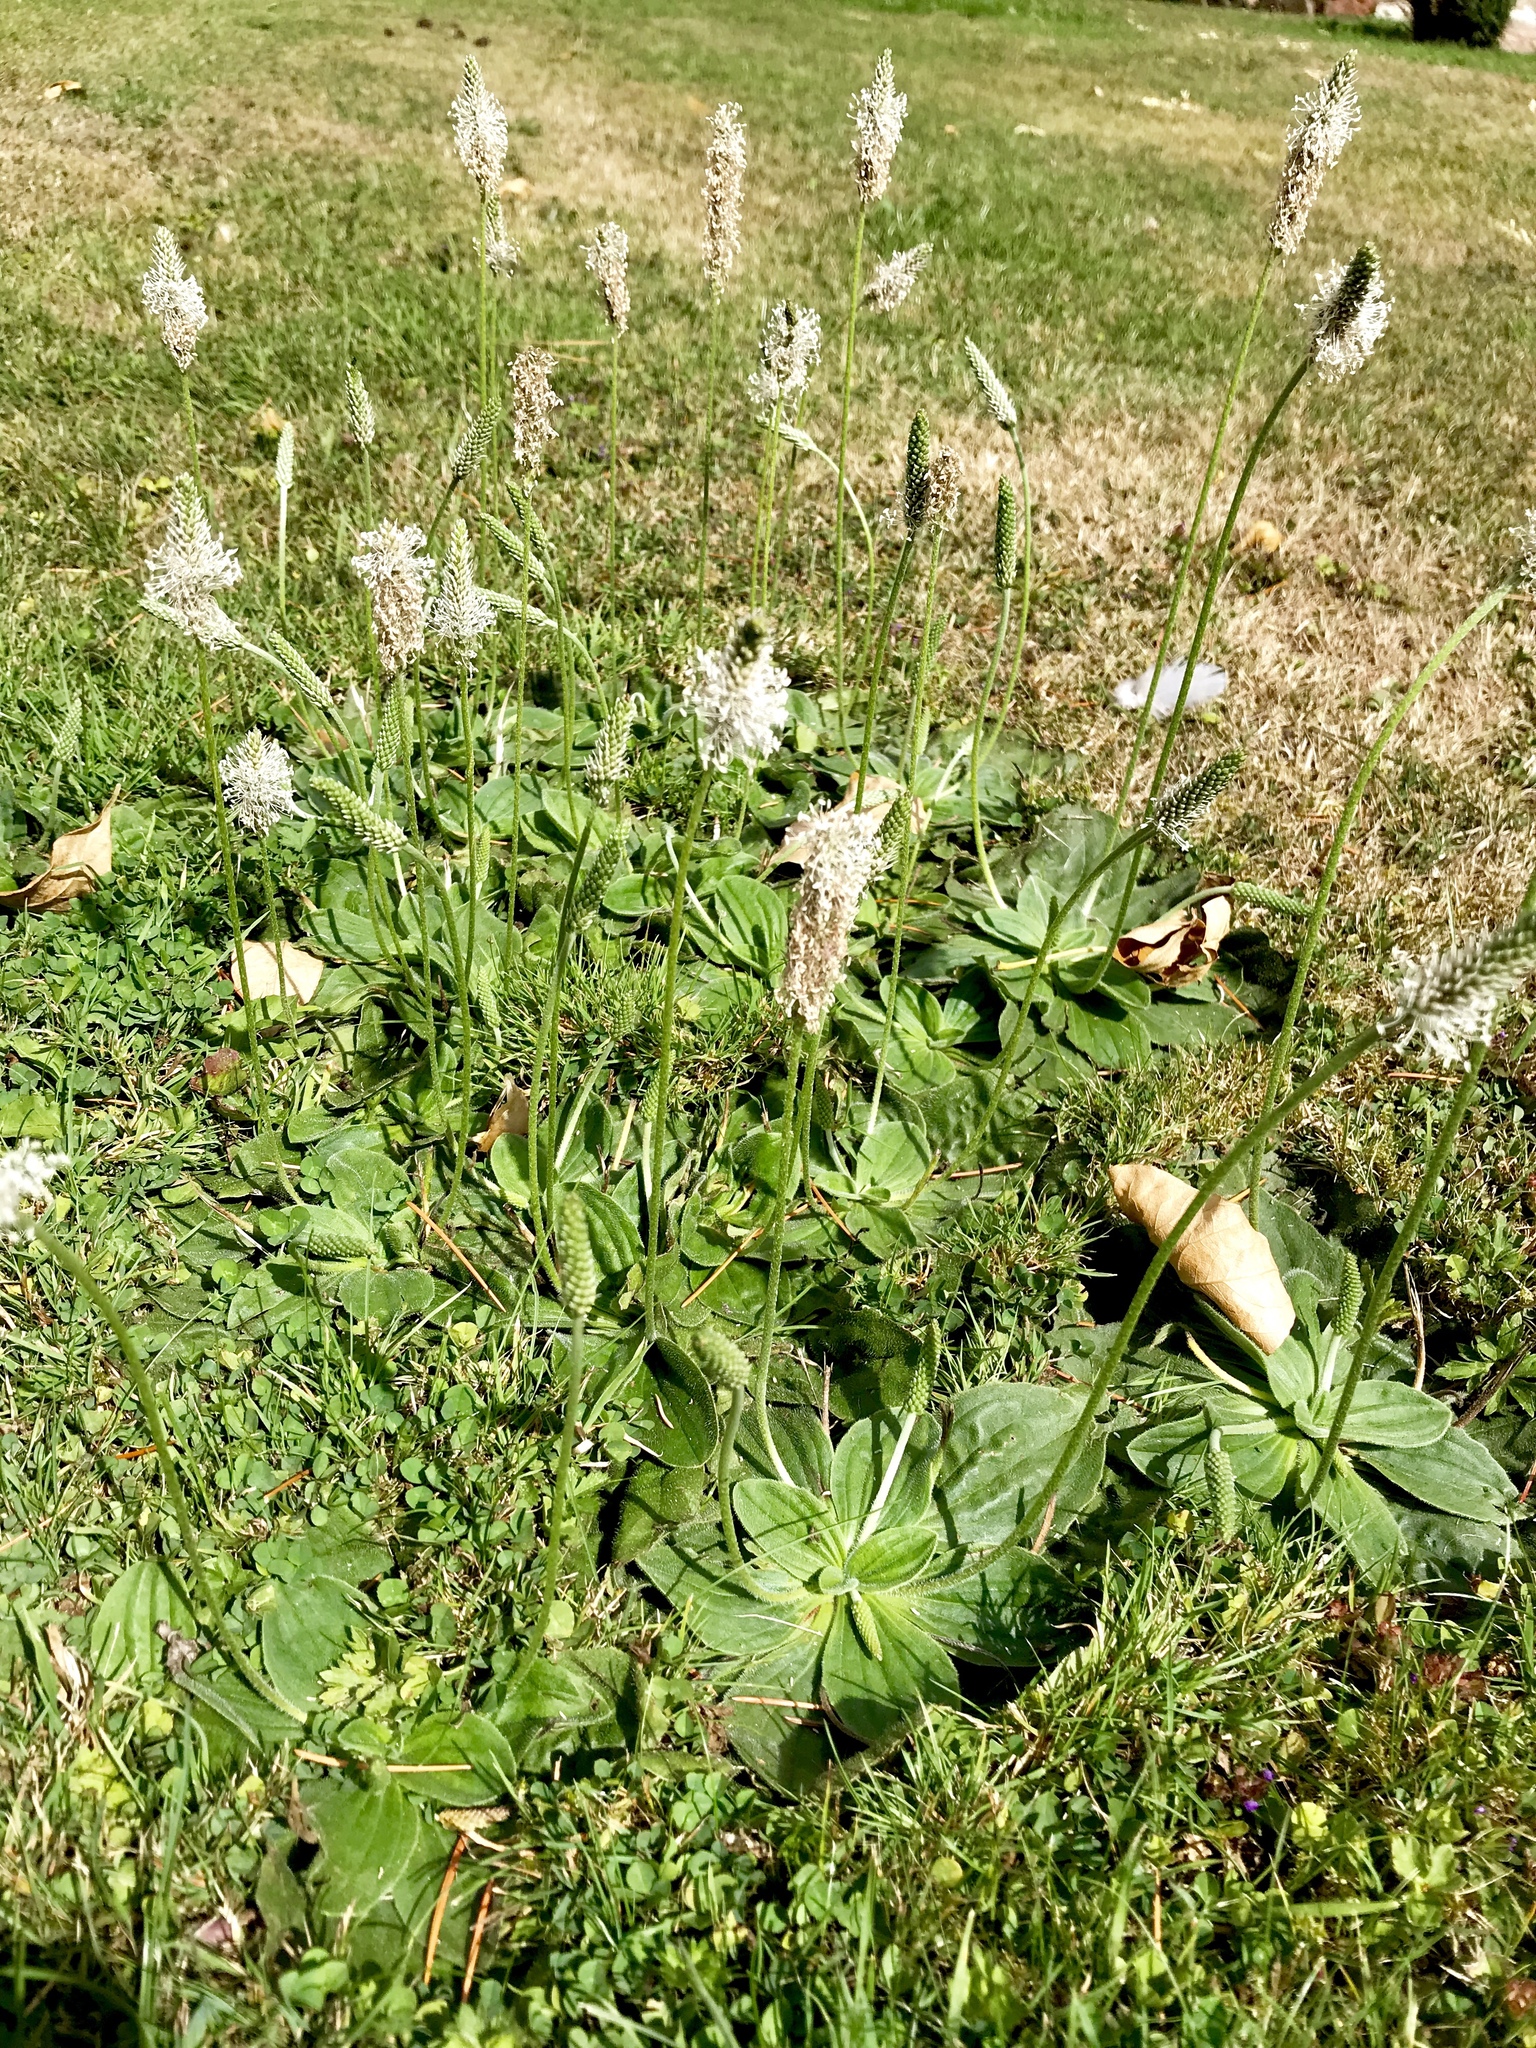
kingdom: Plantae
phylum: Tracheophyta
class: Magnoliopsida
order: Lamiales
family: Plantaginaceae
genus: Plantago
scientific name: Plantago media
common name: Hoary plantain
